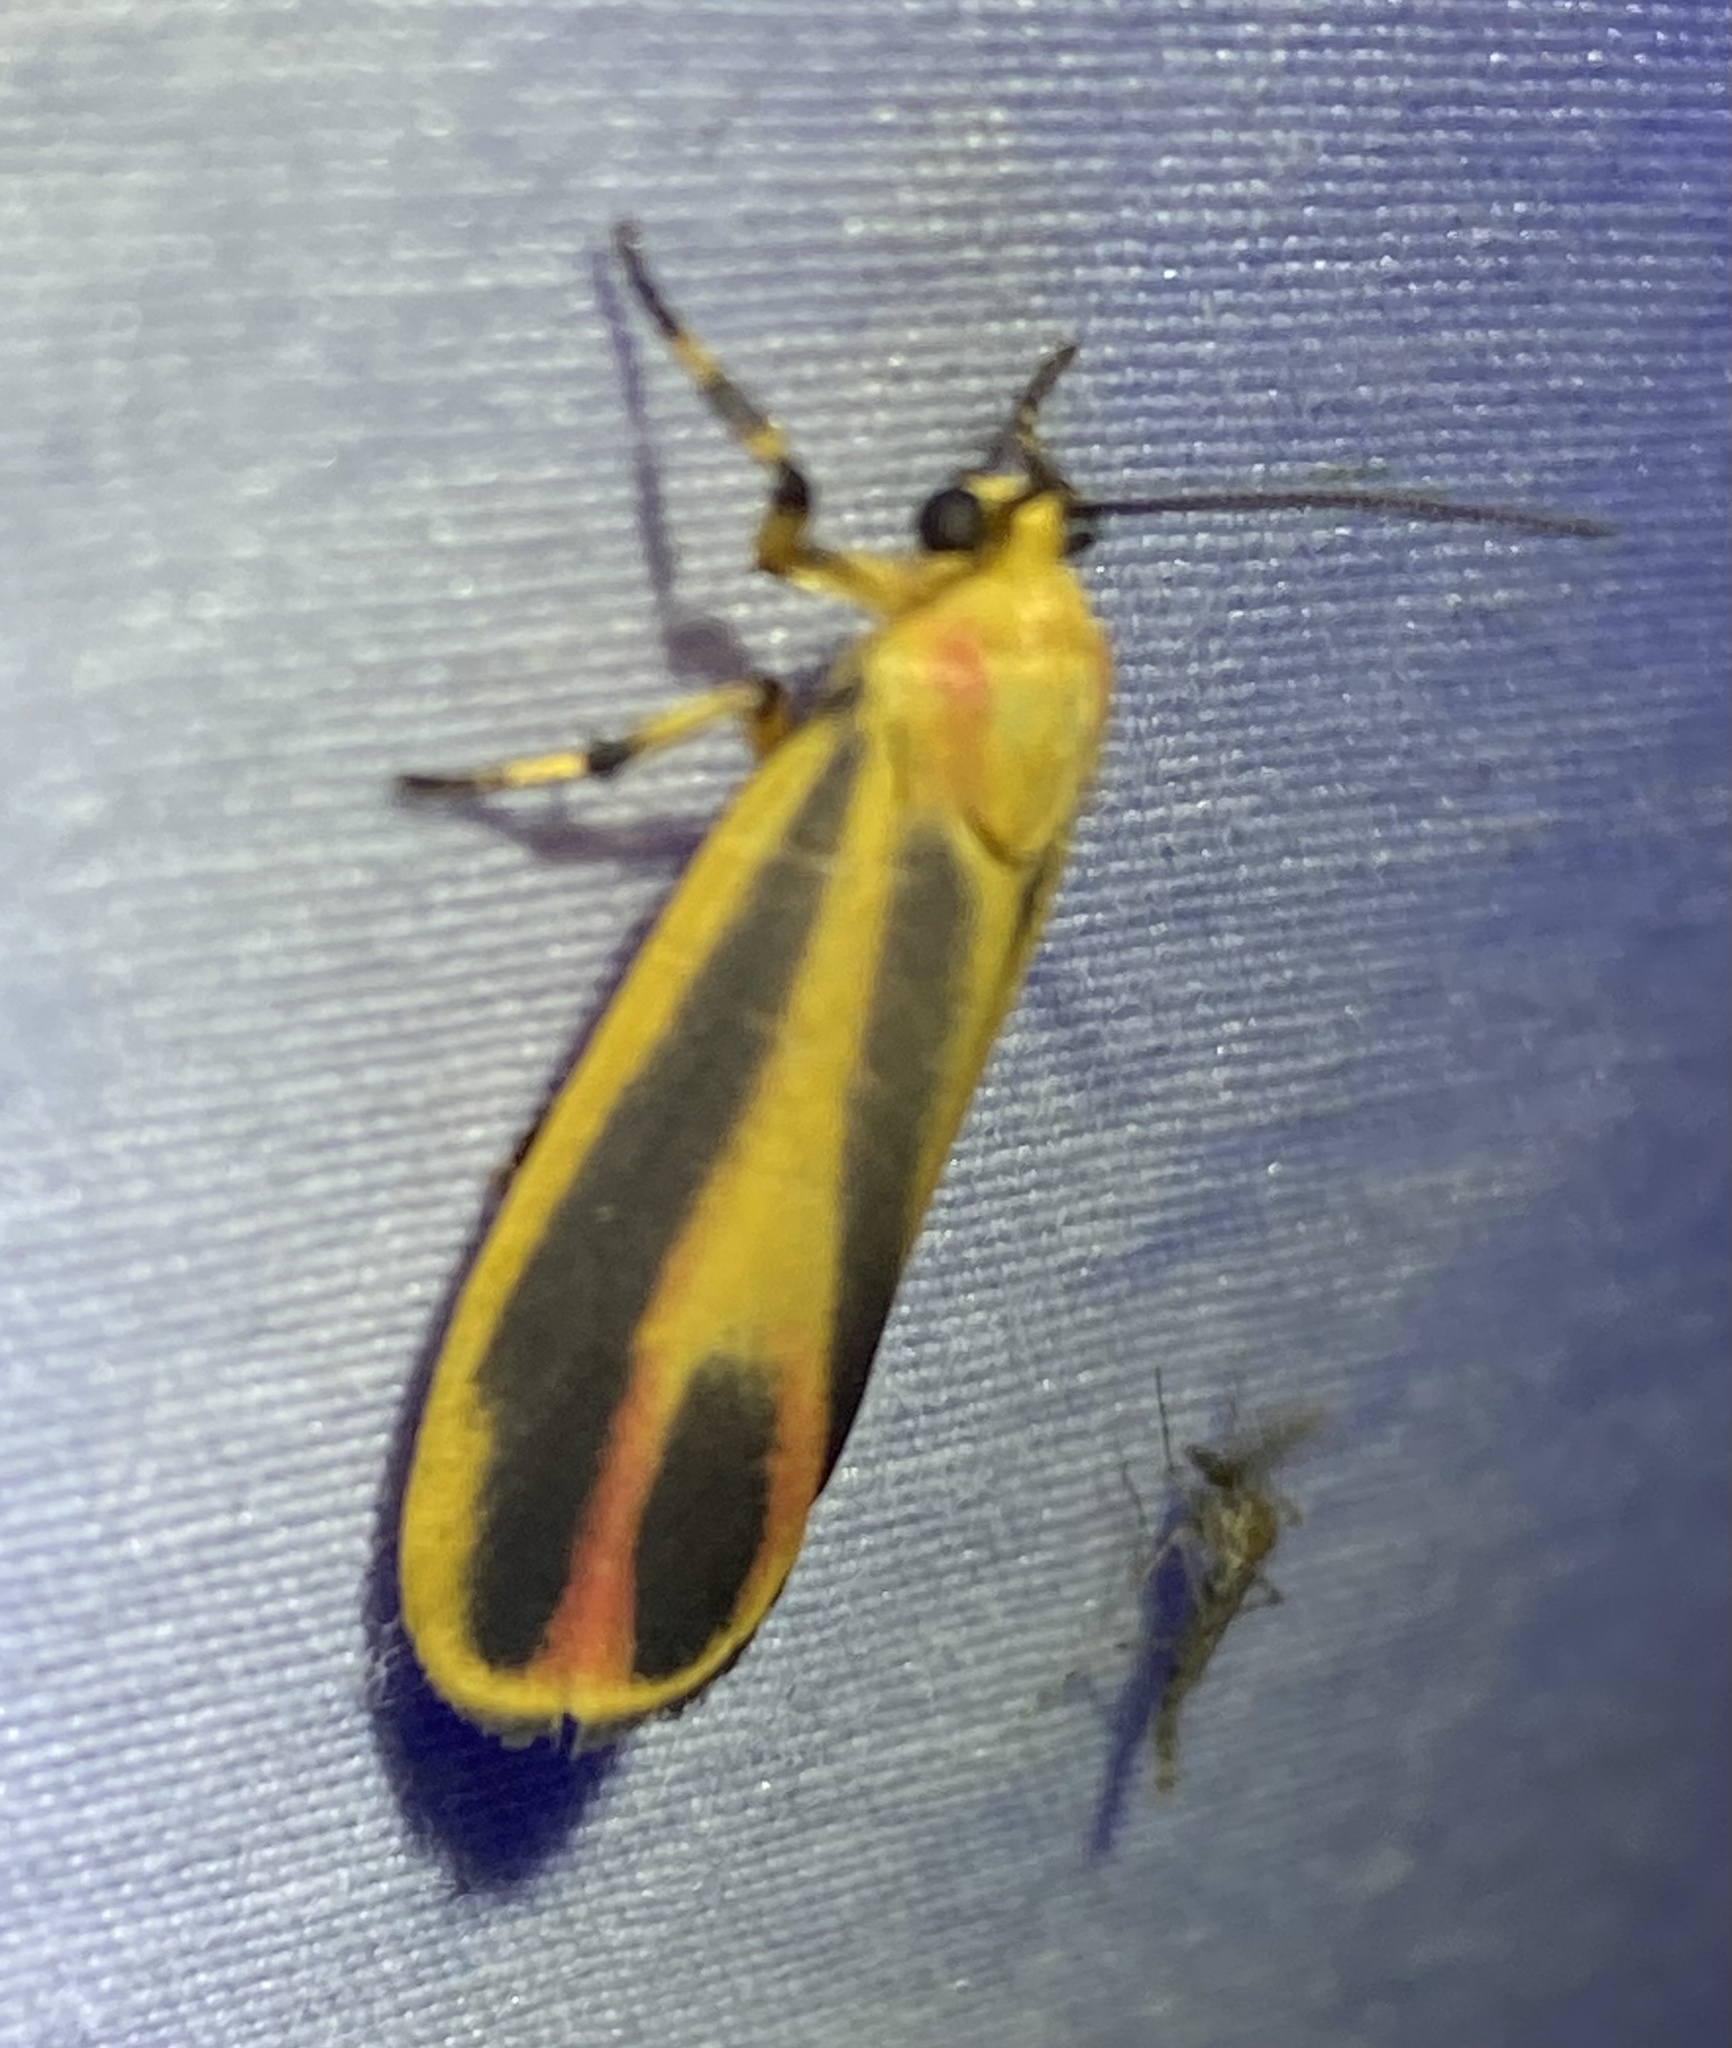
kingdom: Animalia
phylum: Arthropoda
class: Insecta
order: Lepidoptera
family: Erebidae
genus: Hypoprepia
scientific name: Hypoprepia fucosa
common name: Painted lichen moth
